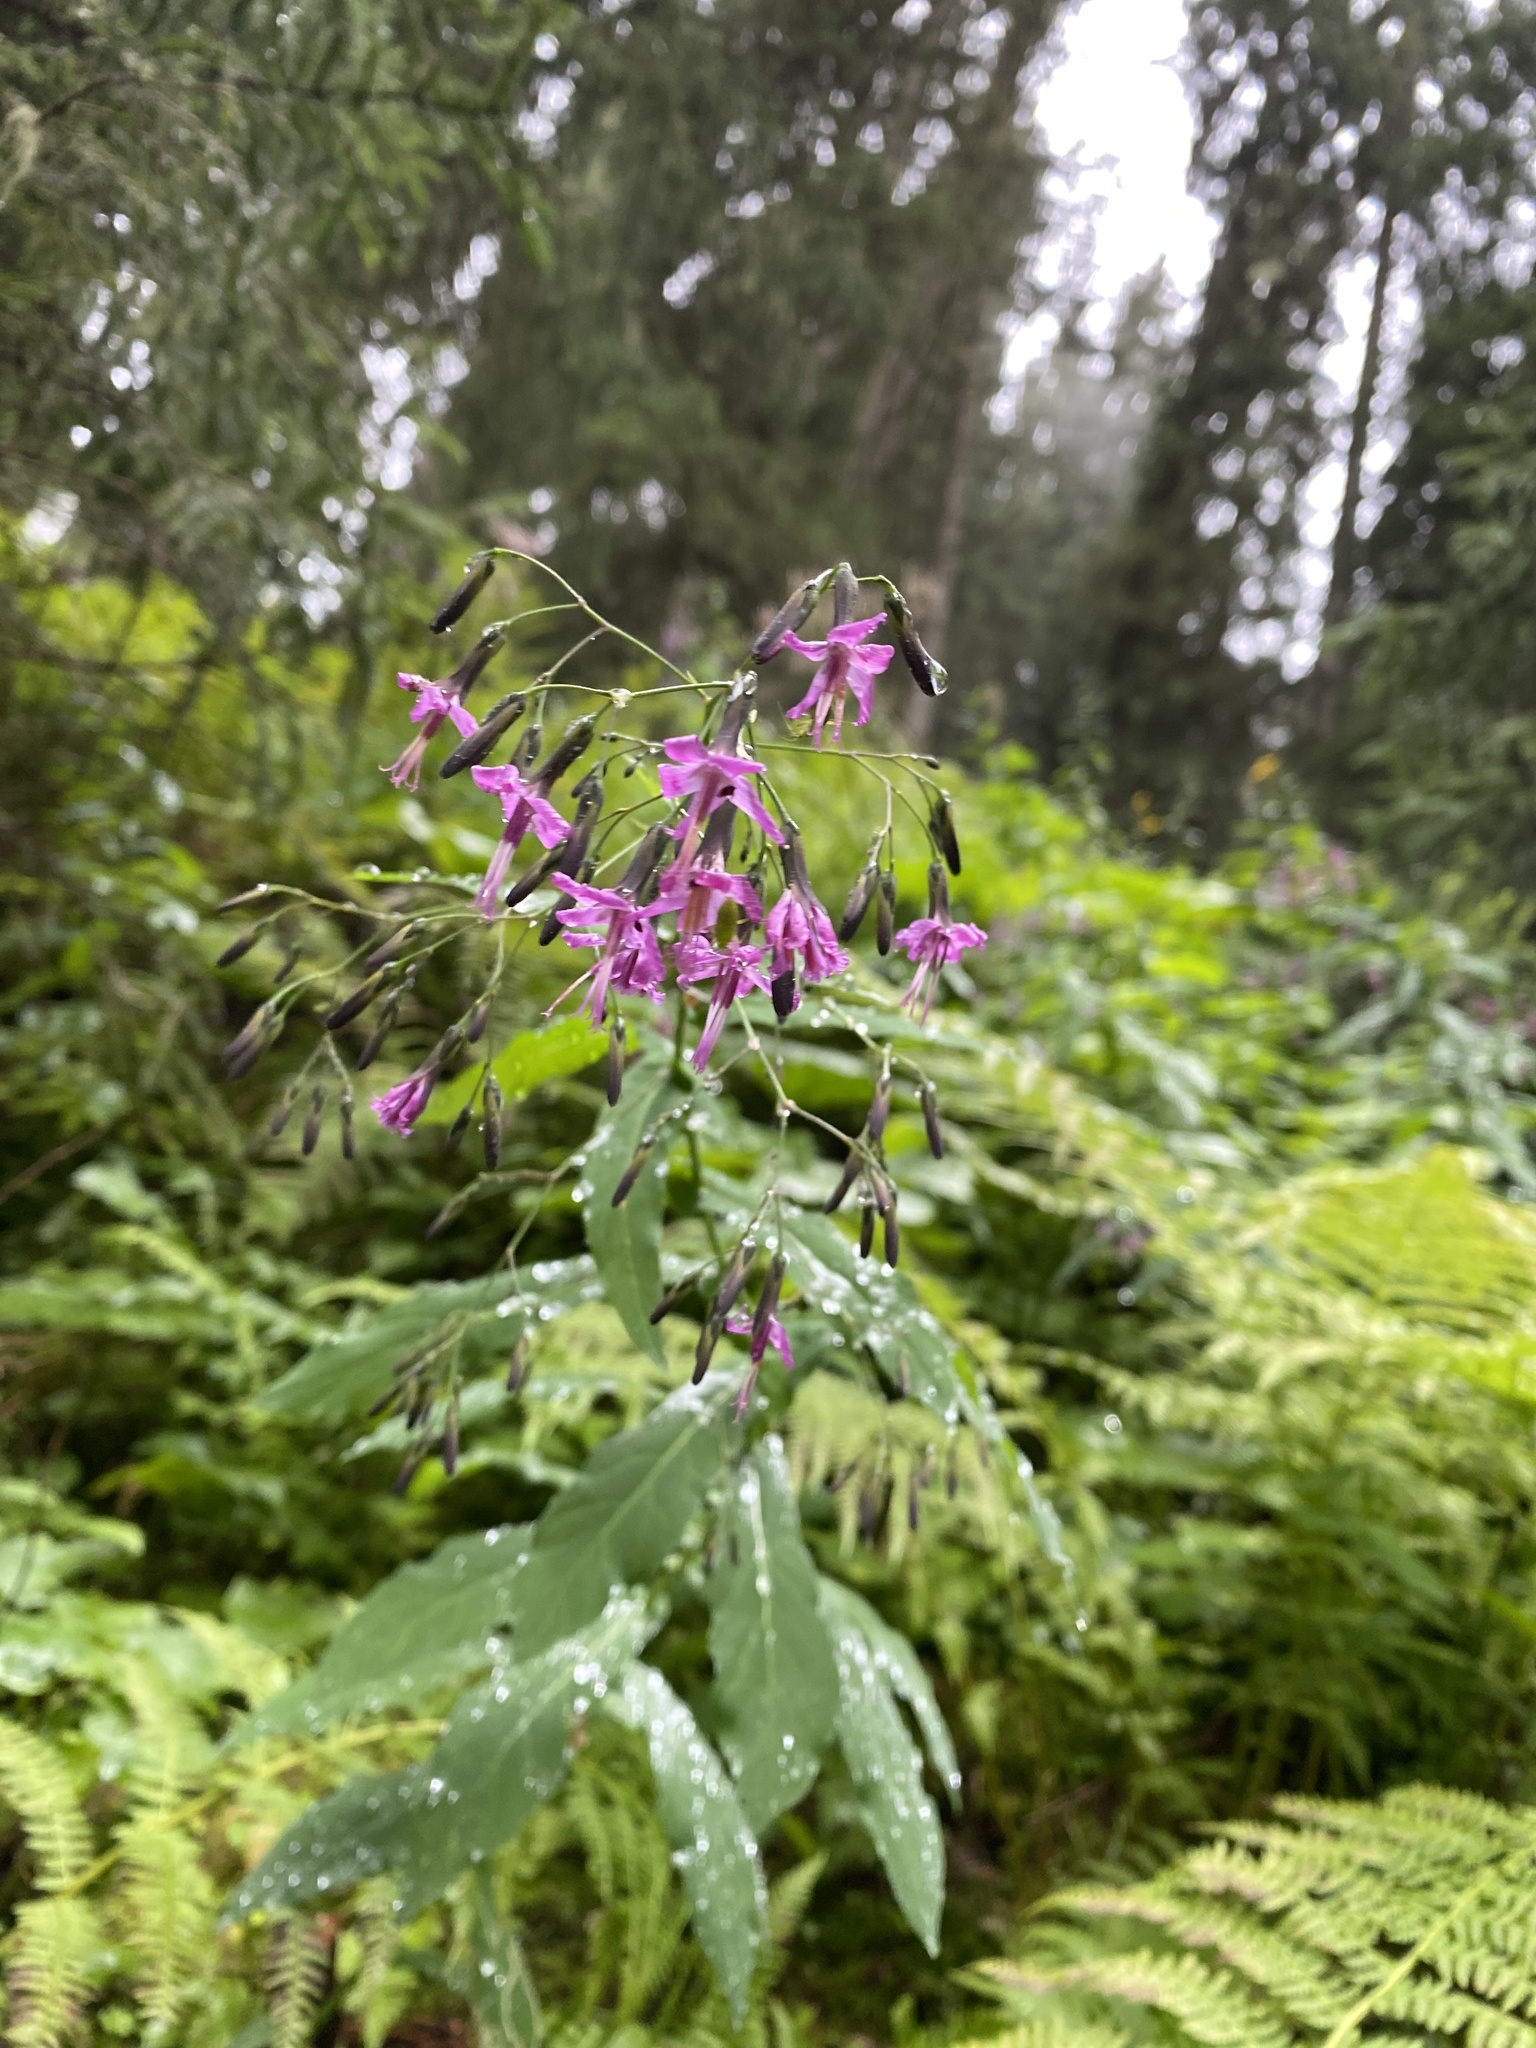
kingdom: Plantae
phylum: Tracheophyta
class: Magnoliopsida
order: Asterales
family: Asteraceae
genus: Prenanthes
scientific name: Prenanthes purpurea
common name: Purple lettuce
